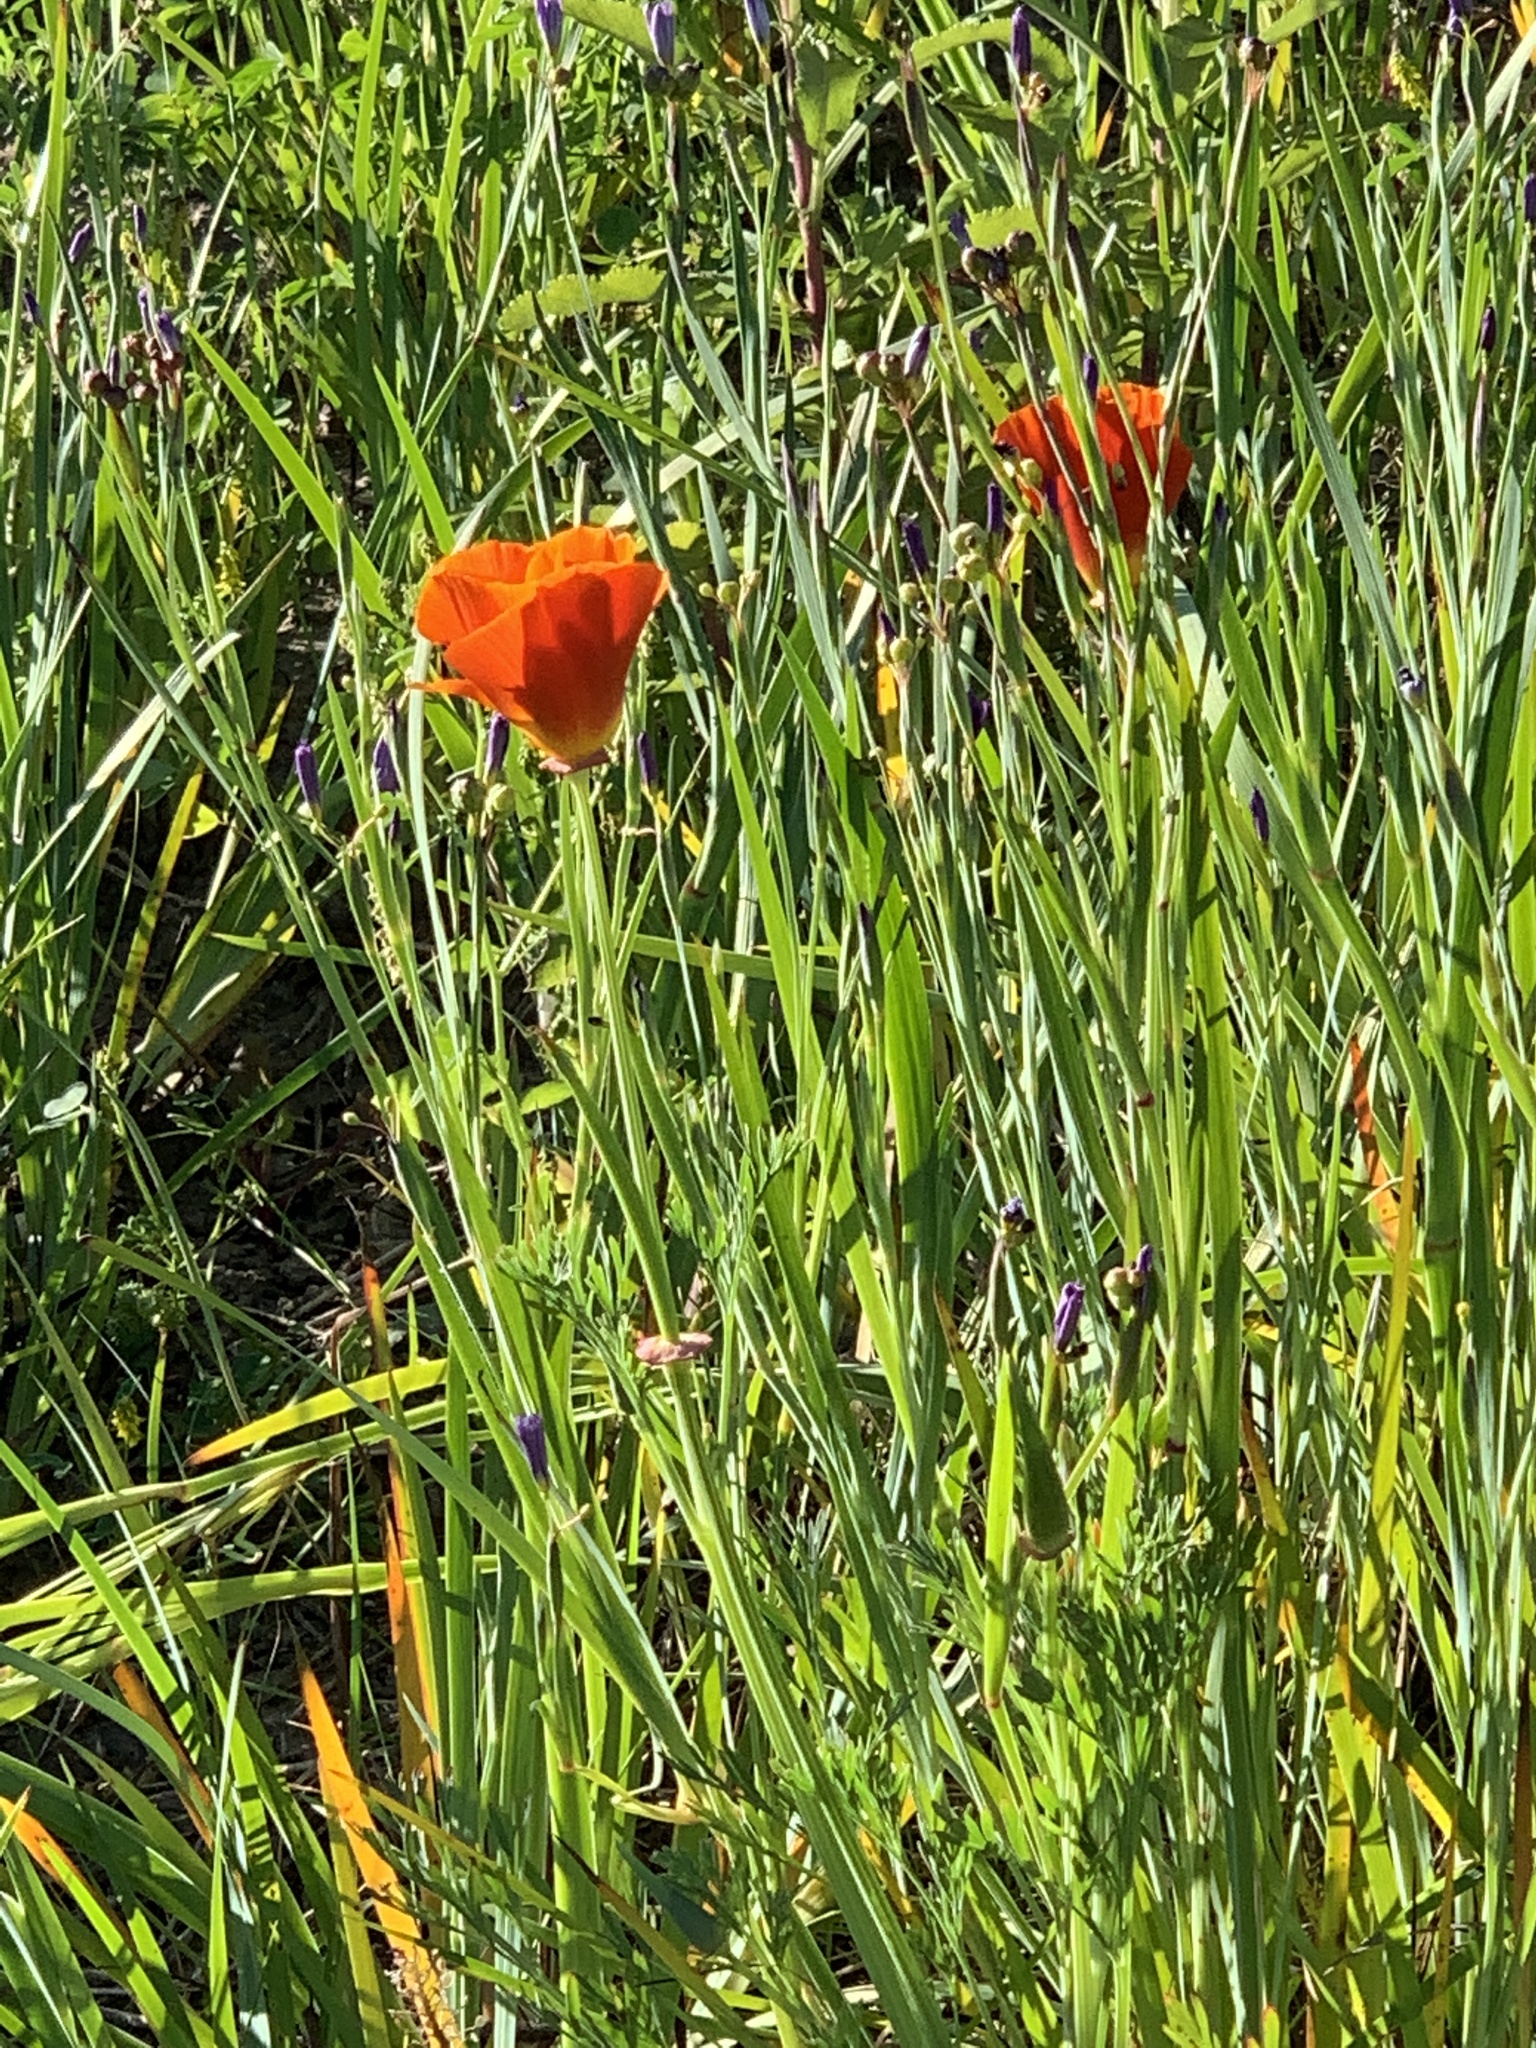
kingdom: Plantae
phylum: Tracheophyta
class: Magnoliopsida
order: Ranunculales
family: Papaveraceae
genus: Eschscholzia
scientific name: Eschscholzia californica
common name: California poppy
